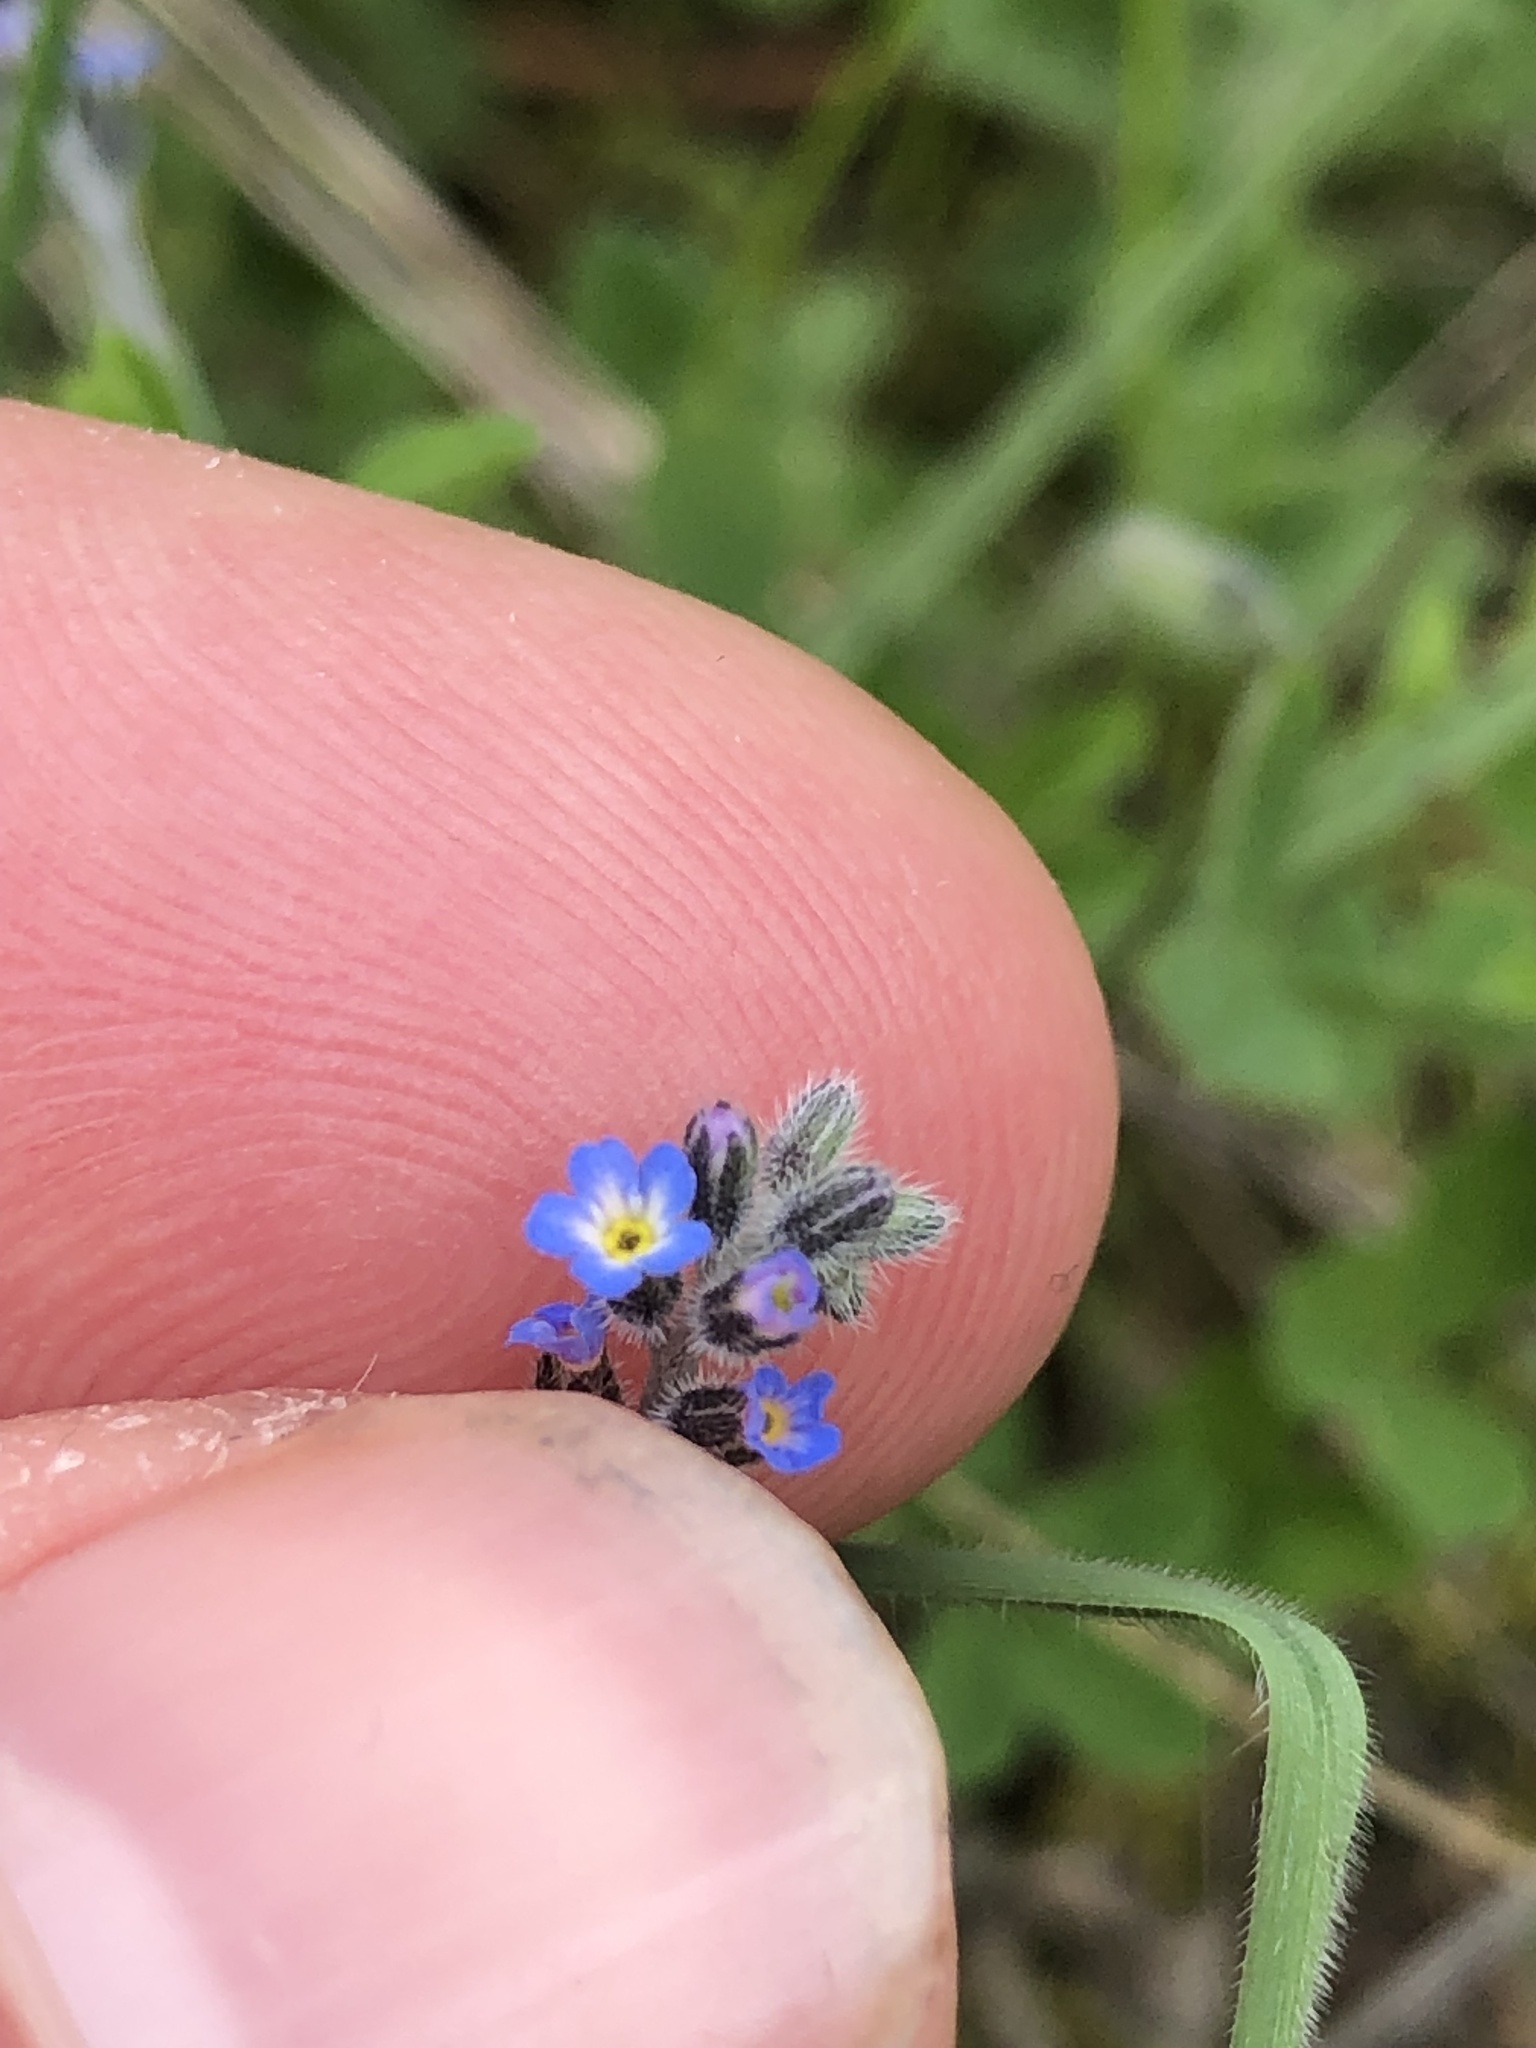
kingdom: Plantae
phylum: Tracheophyta
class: Magnoliopsida
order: Boraginales
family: Boraginaceae
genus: Myosotis
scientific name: Myosotis ramosissima
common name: Early forget-me-not
